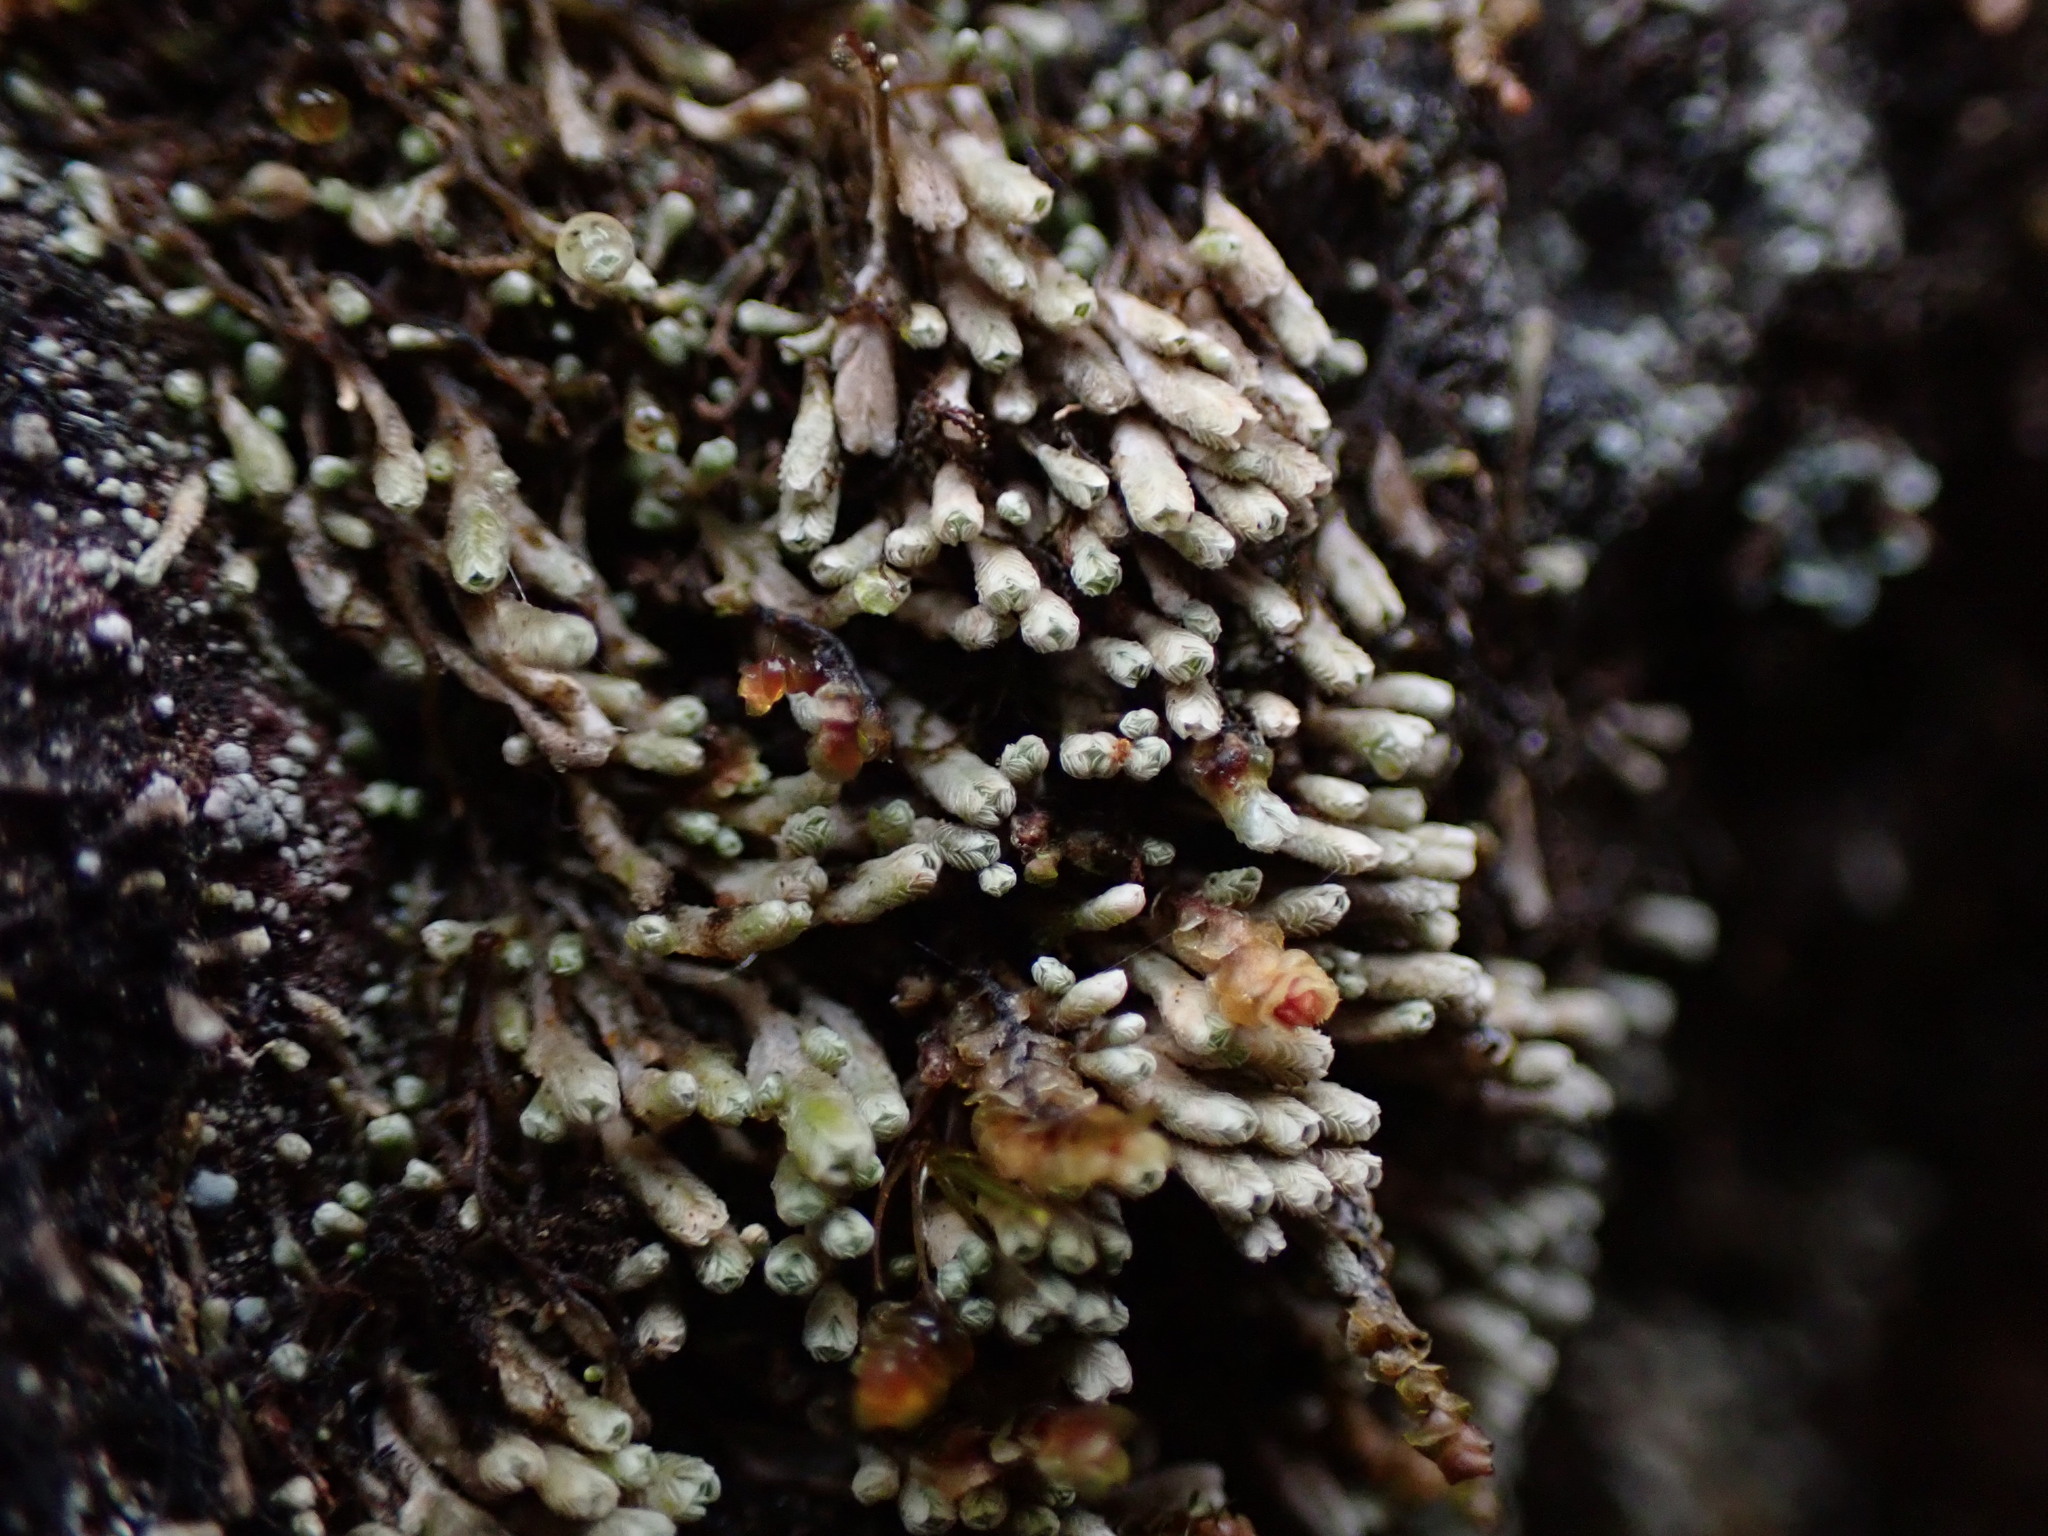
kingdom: Plantae
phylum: Marchantiophyta
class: Jungermanniopsida
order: Jungermanniales
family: Gymnomitriaceae
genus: Gymnomitrion
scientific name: Gymnomitrion obtusum
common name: White frostwort
